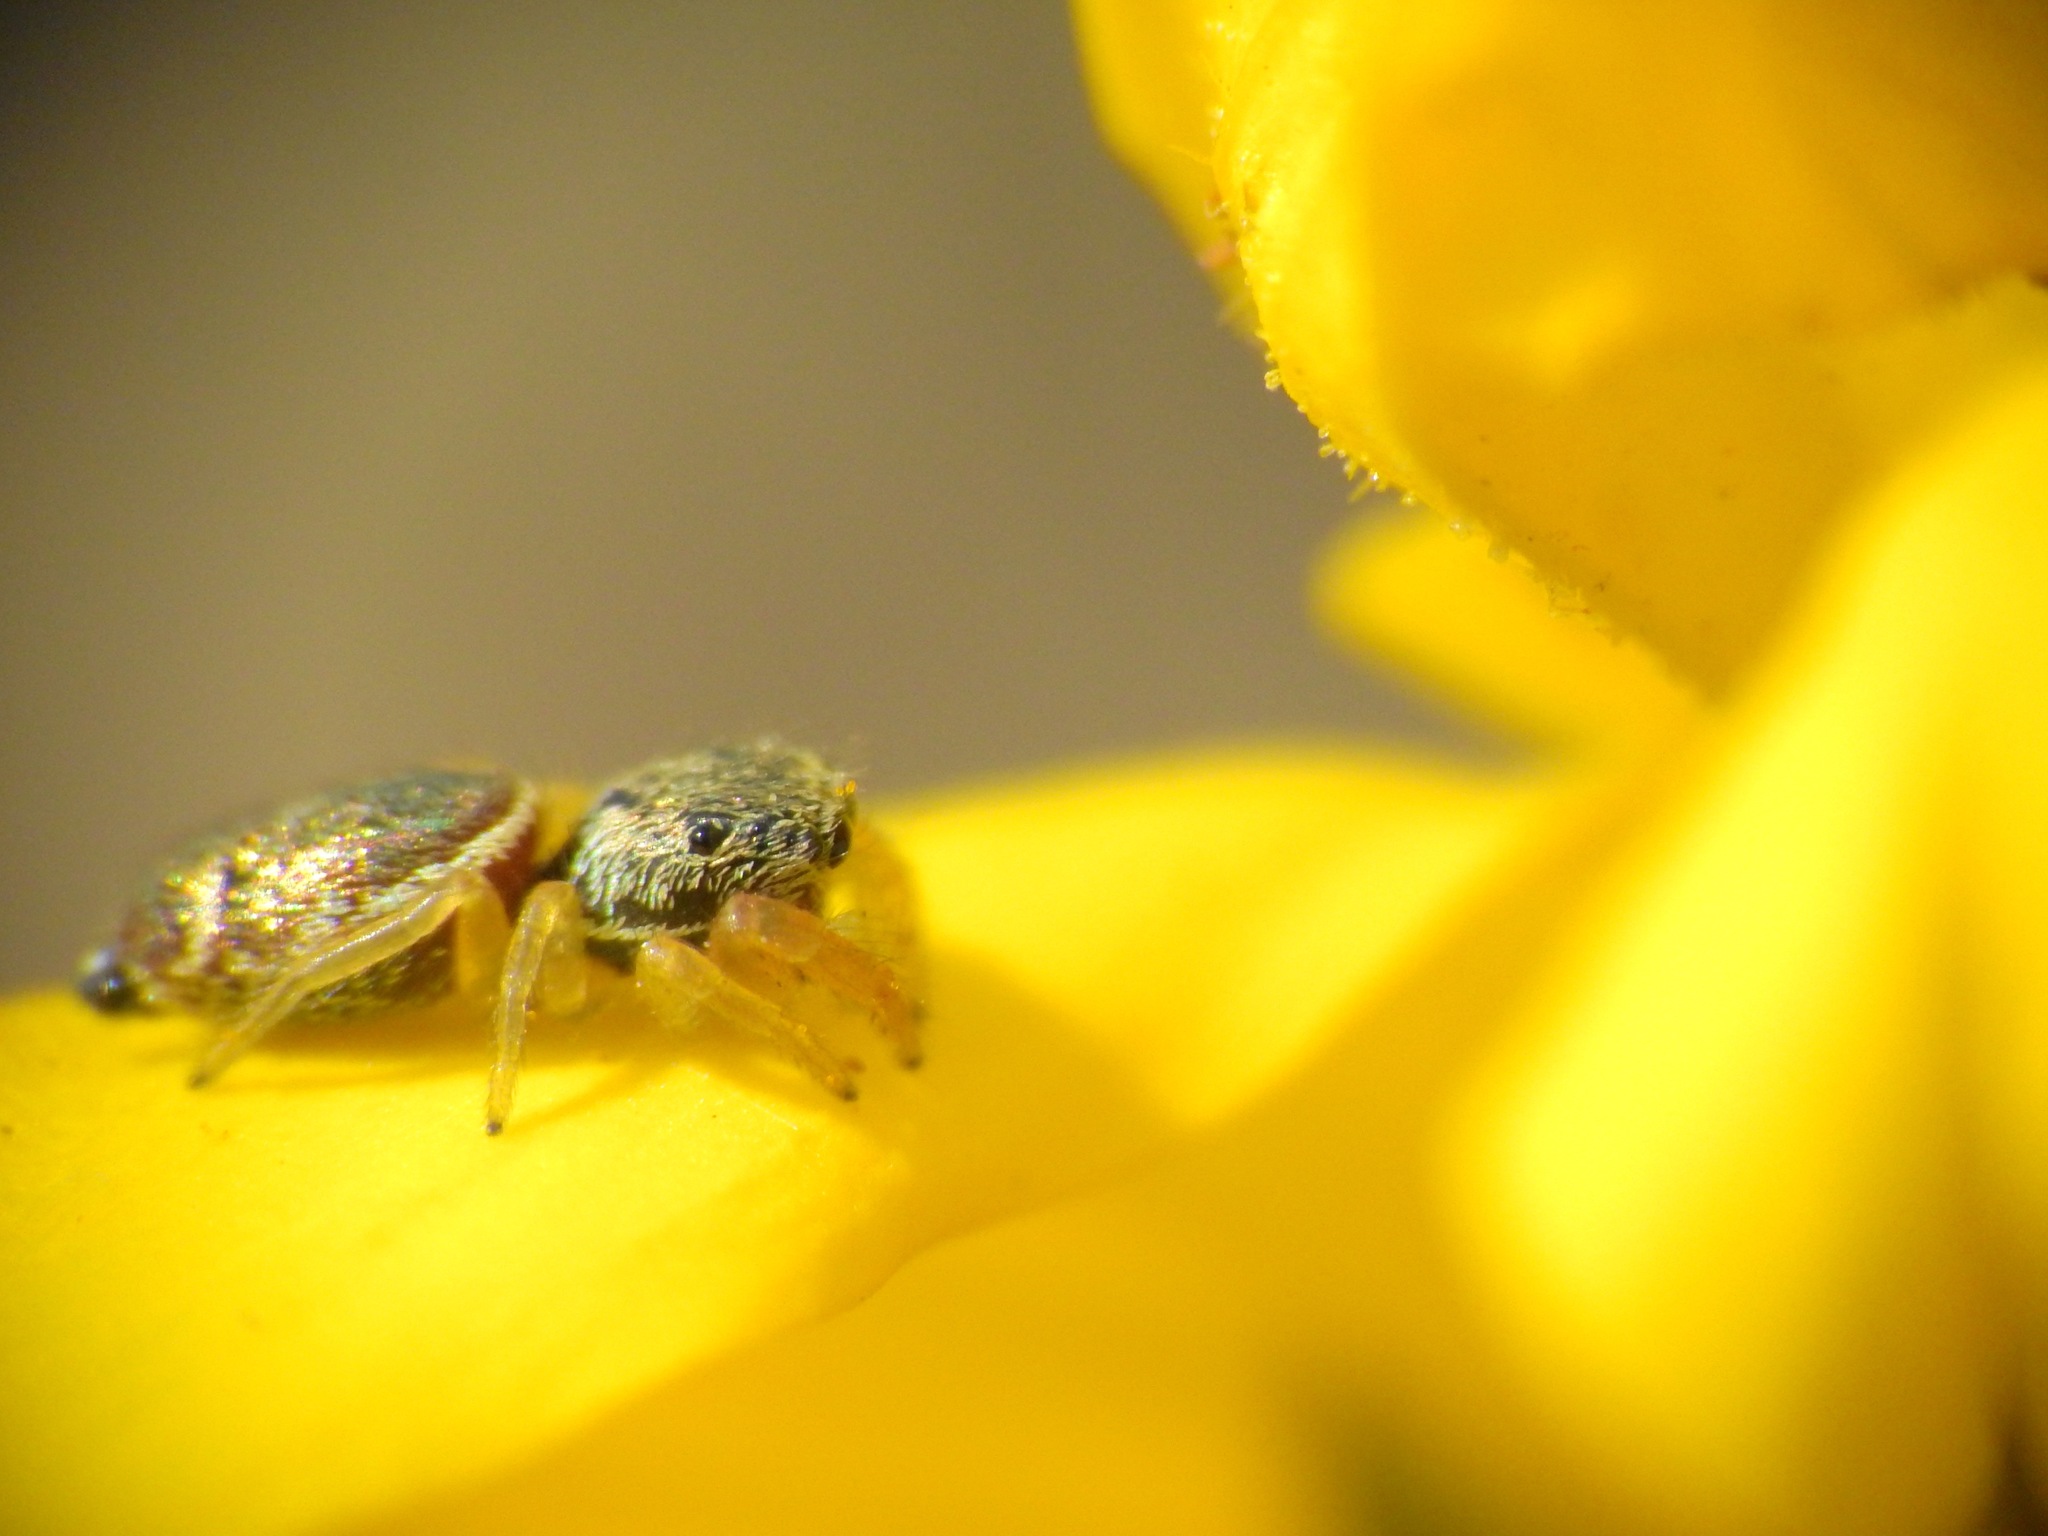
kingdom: Animalia
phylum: Arthropoda
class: Arachnida
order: Araneae
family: Salticidae
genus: Sassacus
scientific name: Sassacus vitis
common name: Jumping spiders
